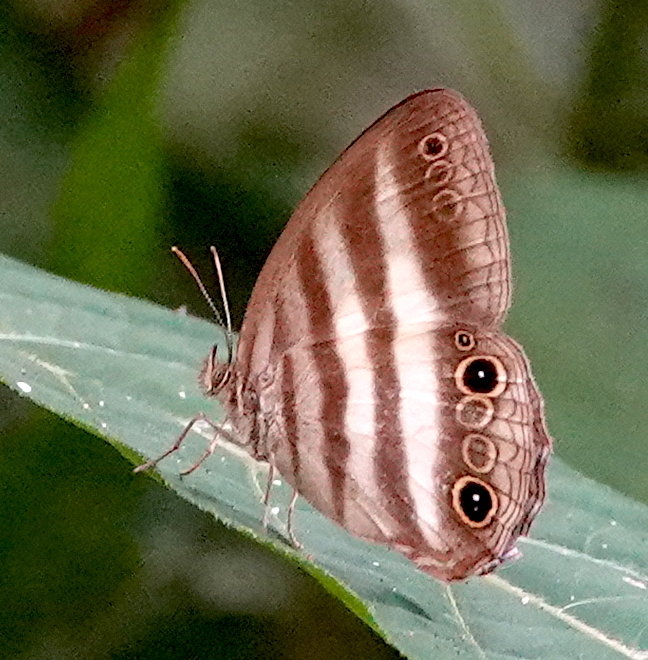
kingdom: Animalia
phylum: Arthropoda
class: Insecta
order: Lepidoptera
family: Nymphalidae
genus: Pareuptychia
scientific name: Pareuptychia hesione
